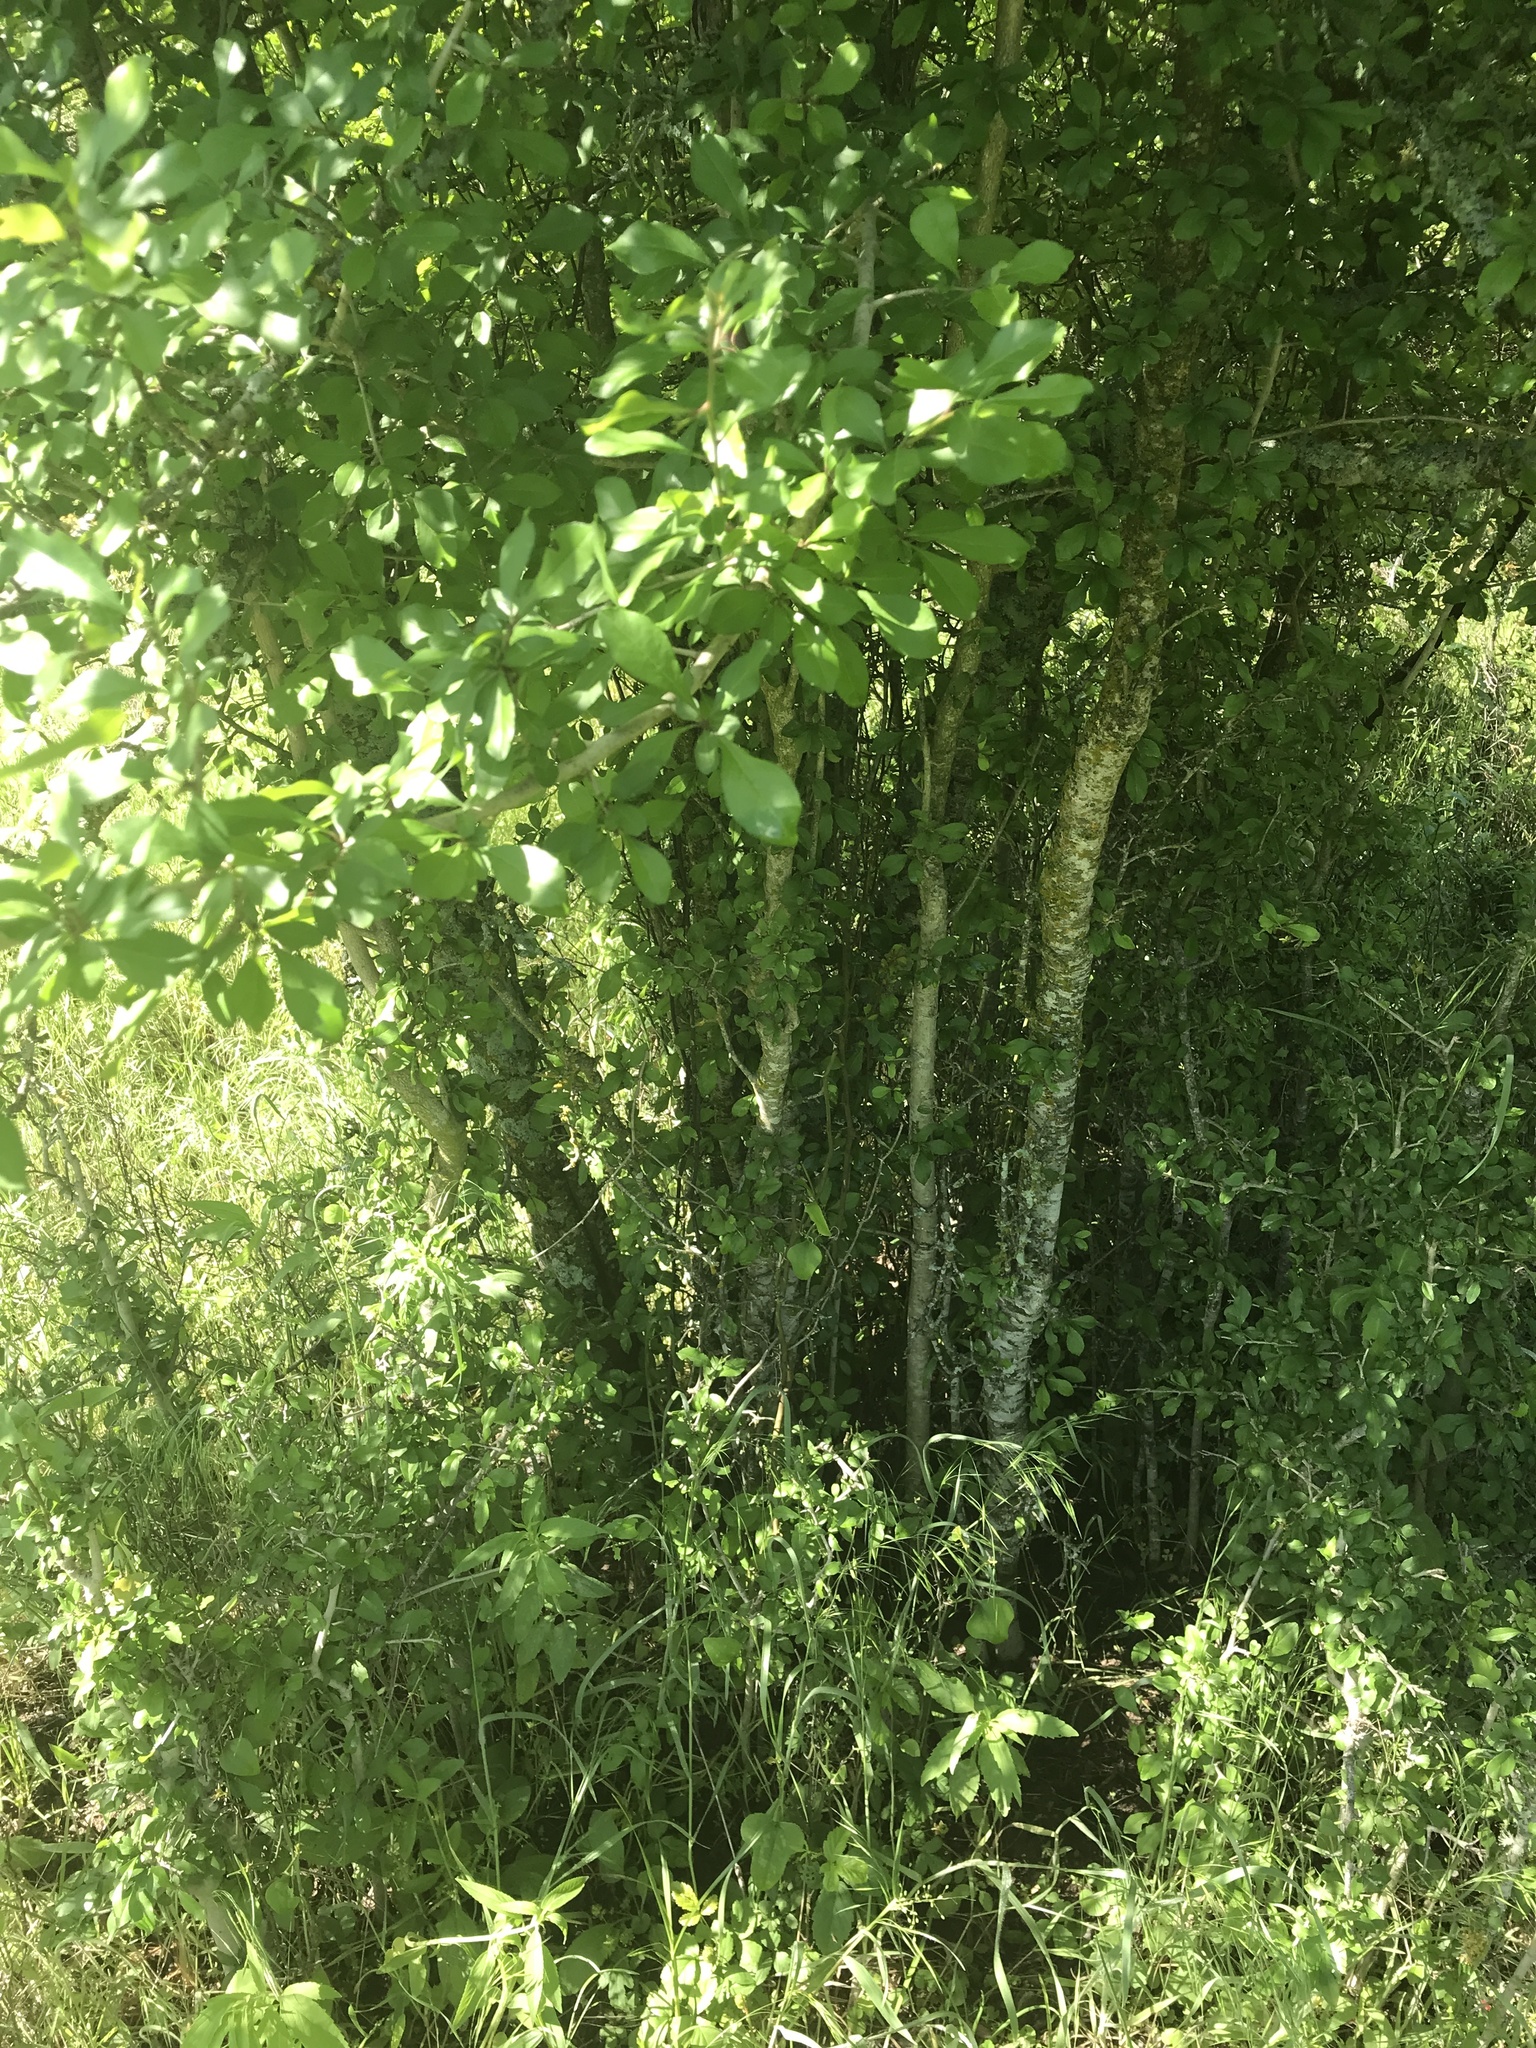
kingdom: Plantae
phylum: Tracheophyta
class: Magnoliopsida
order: Aquifoliales
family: Aquifoliaceae
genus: Ilex
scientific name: Ilex decidua
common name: Possum-haw
